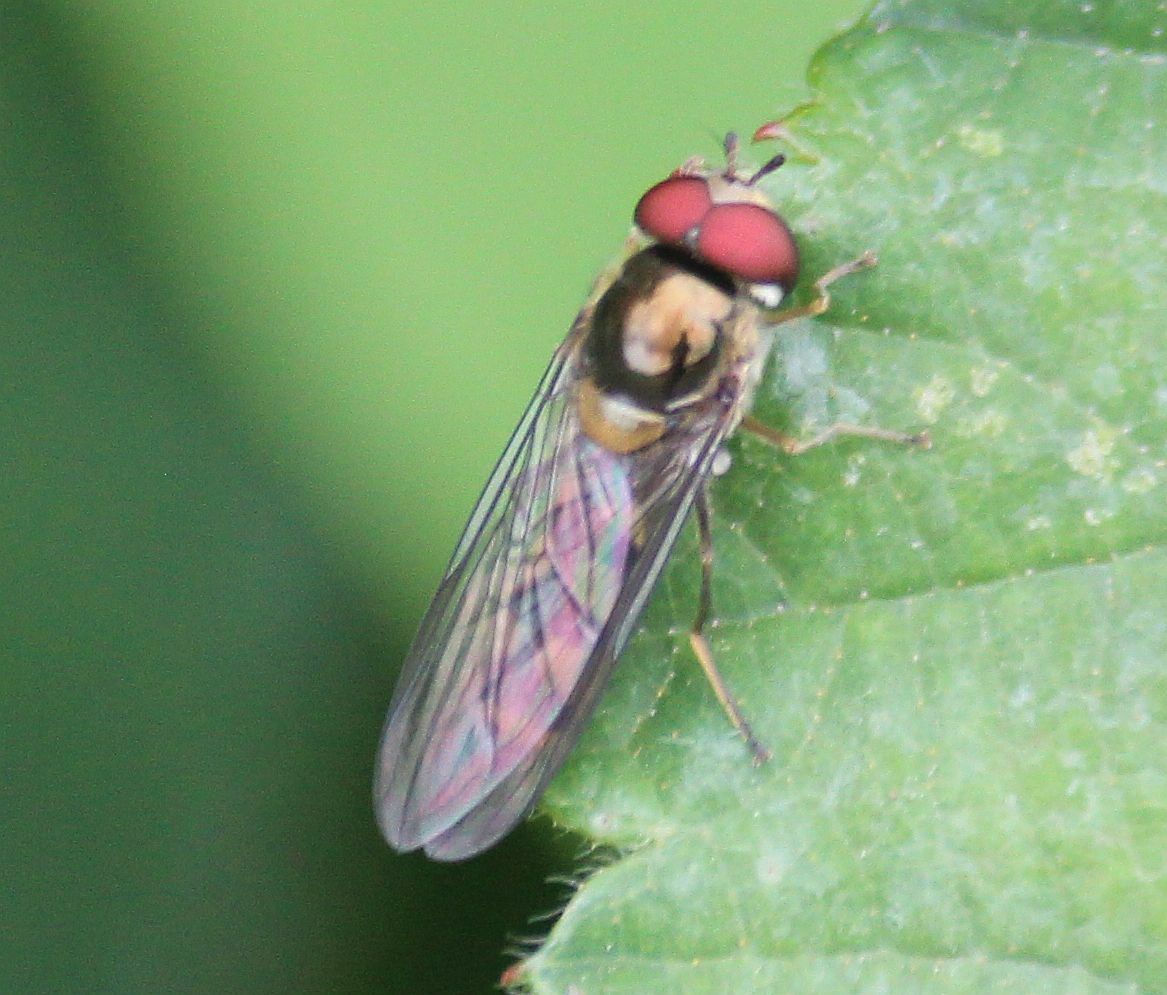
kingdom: Animalia
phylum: Arthropoda
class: Insecta
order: Diptera
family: Syrphidae
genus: Meliscaeva
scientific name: Meliscaeva auricollis
